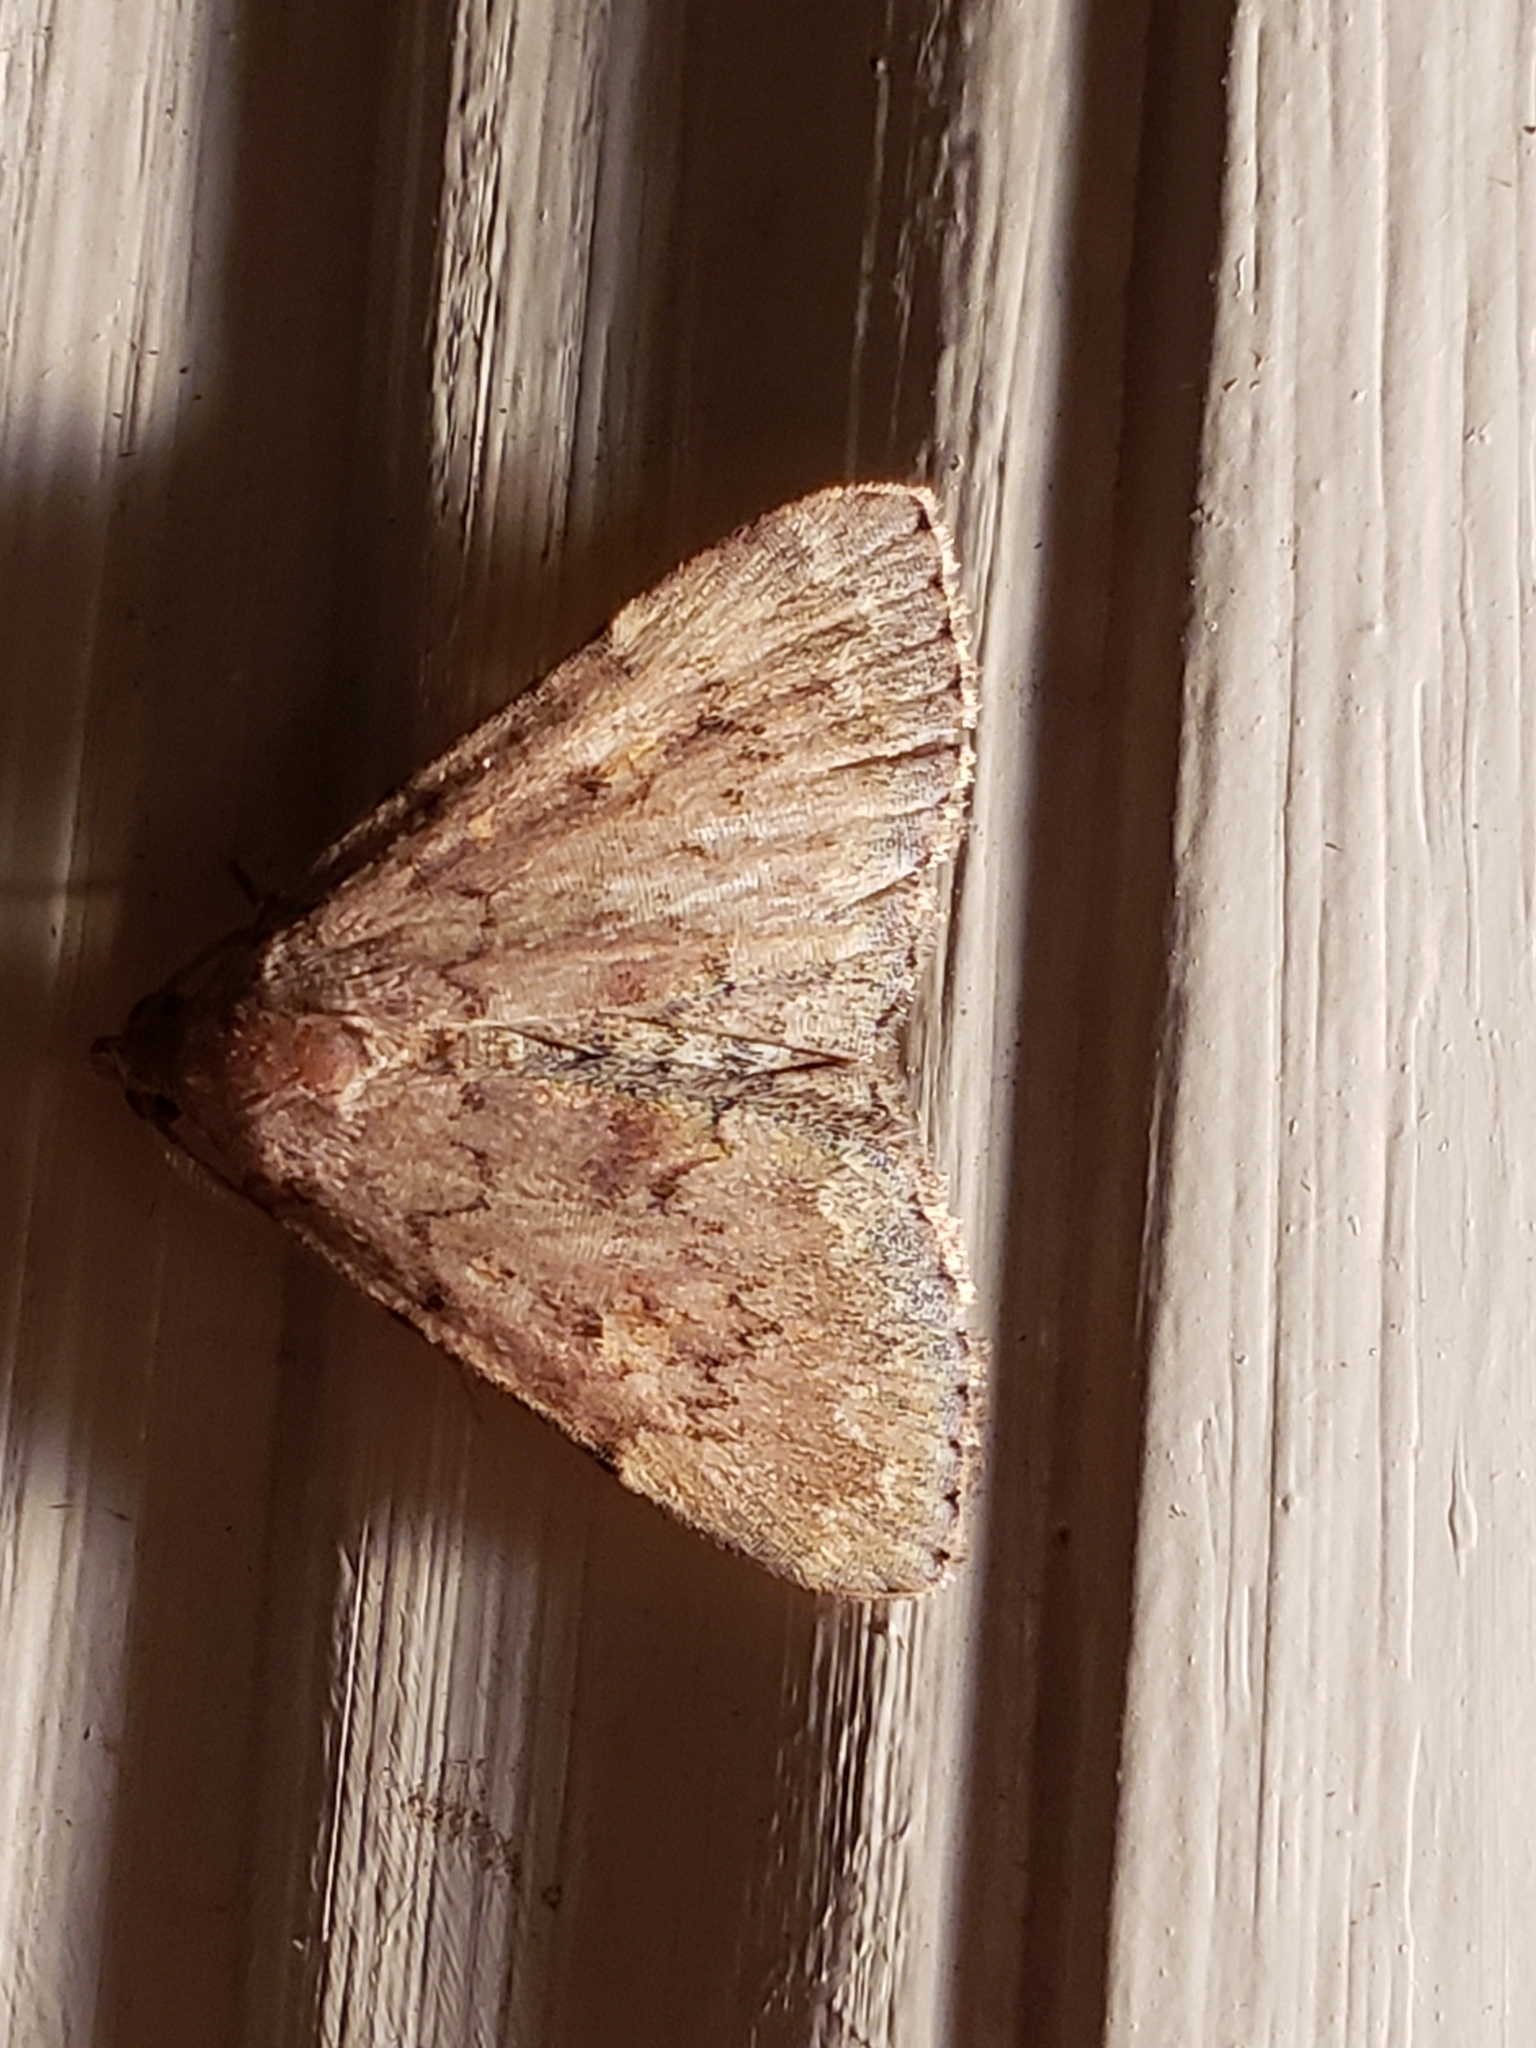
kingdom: Animalia
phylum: Arthropoda
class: Insecta
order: Lepidoptera
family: Erebidae
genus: Idia
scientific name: Idia aemula
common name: Common idia moth
